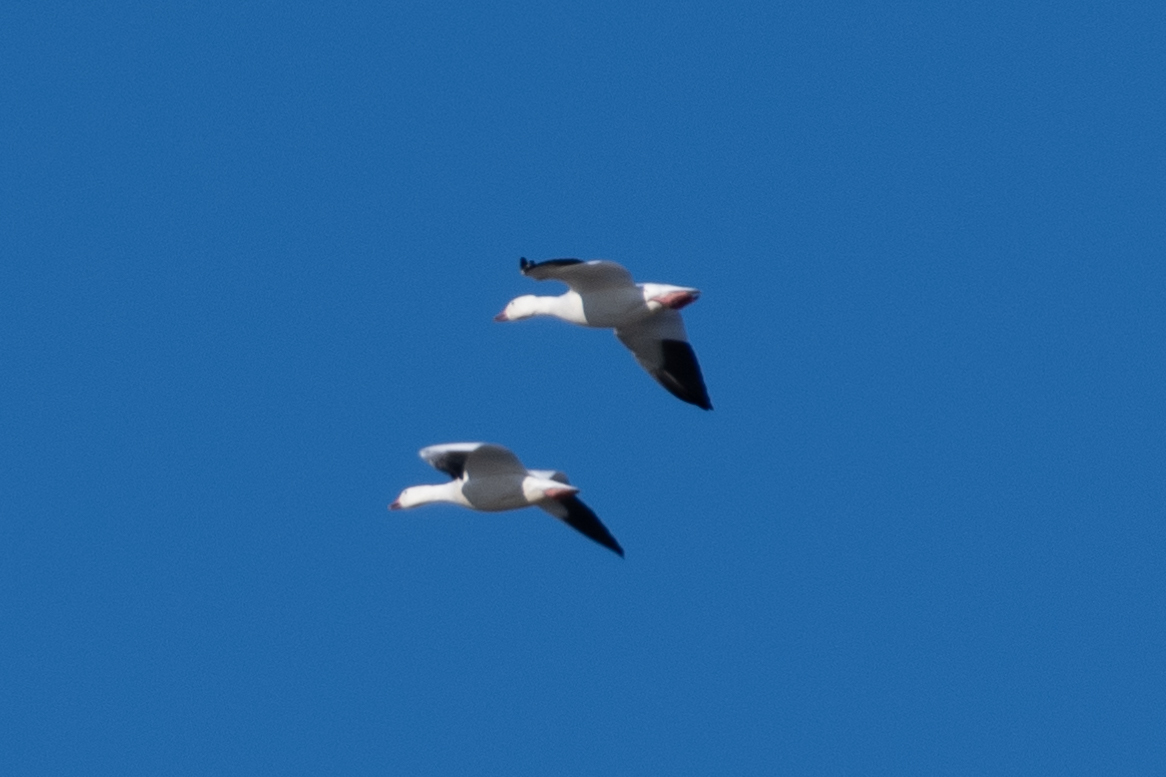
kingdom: Animalia
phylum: Chordata
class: Aves
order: Anseriformes
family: Anatidae
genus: Anser
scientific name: Anser caerulescens
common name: Snow goose
